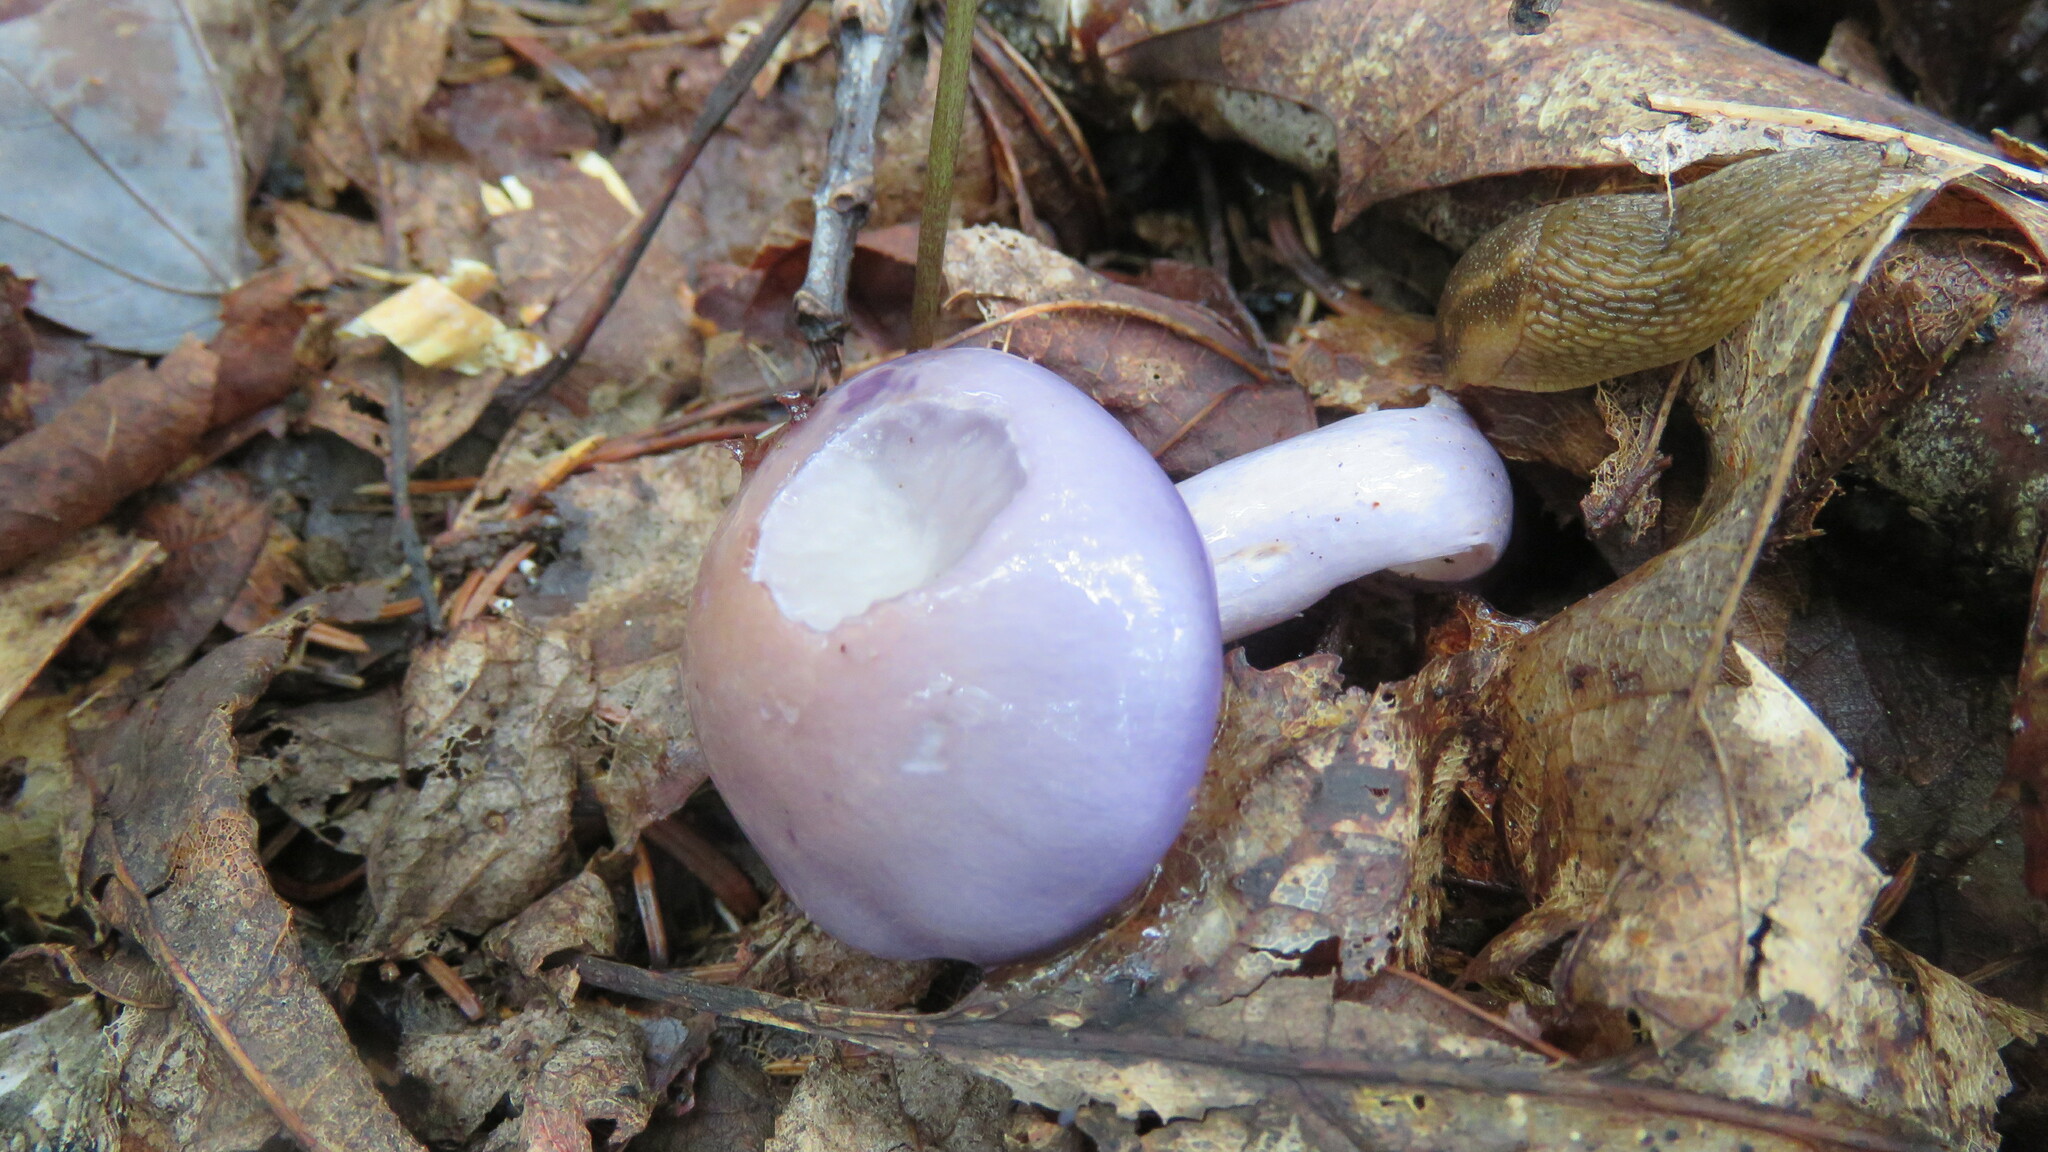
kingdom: Fungi
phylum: Basidiomycota
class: Agaricomycetes
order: Agaricales
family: Cortinariaceae
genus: Cortinarius
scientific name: Cortinarius iodes
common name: Viscid violet cort
